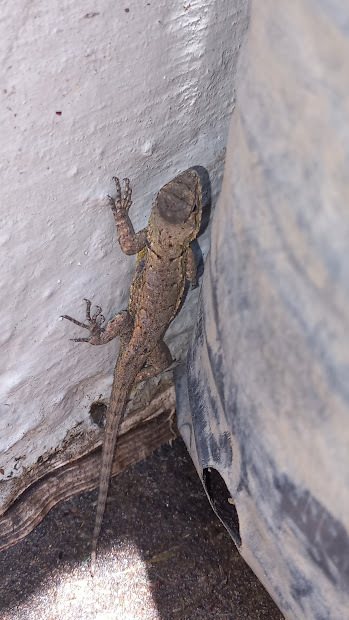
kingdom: Animalia
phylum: Chordata
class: Squamata
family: Phrynosomatidae
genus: Sceloporus
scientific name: Sceloporus grammicus
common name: Mesquite lizard
